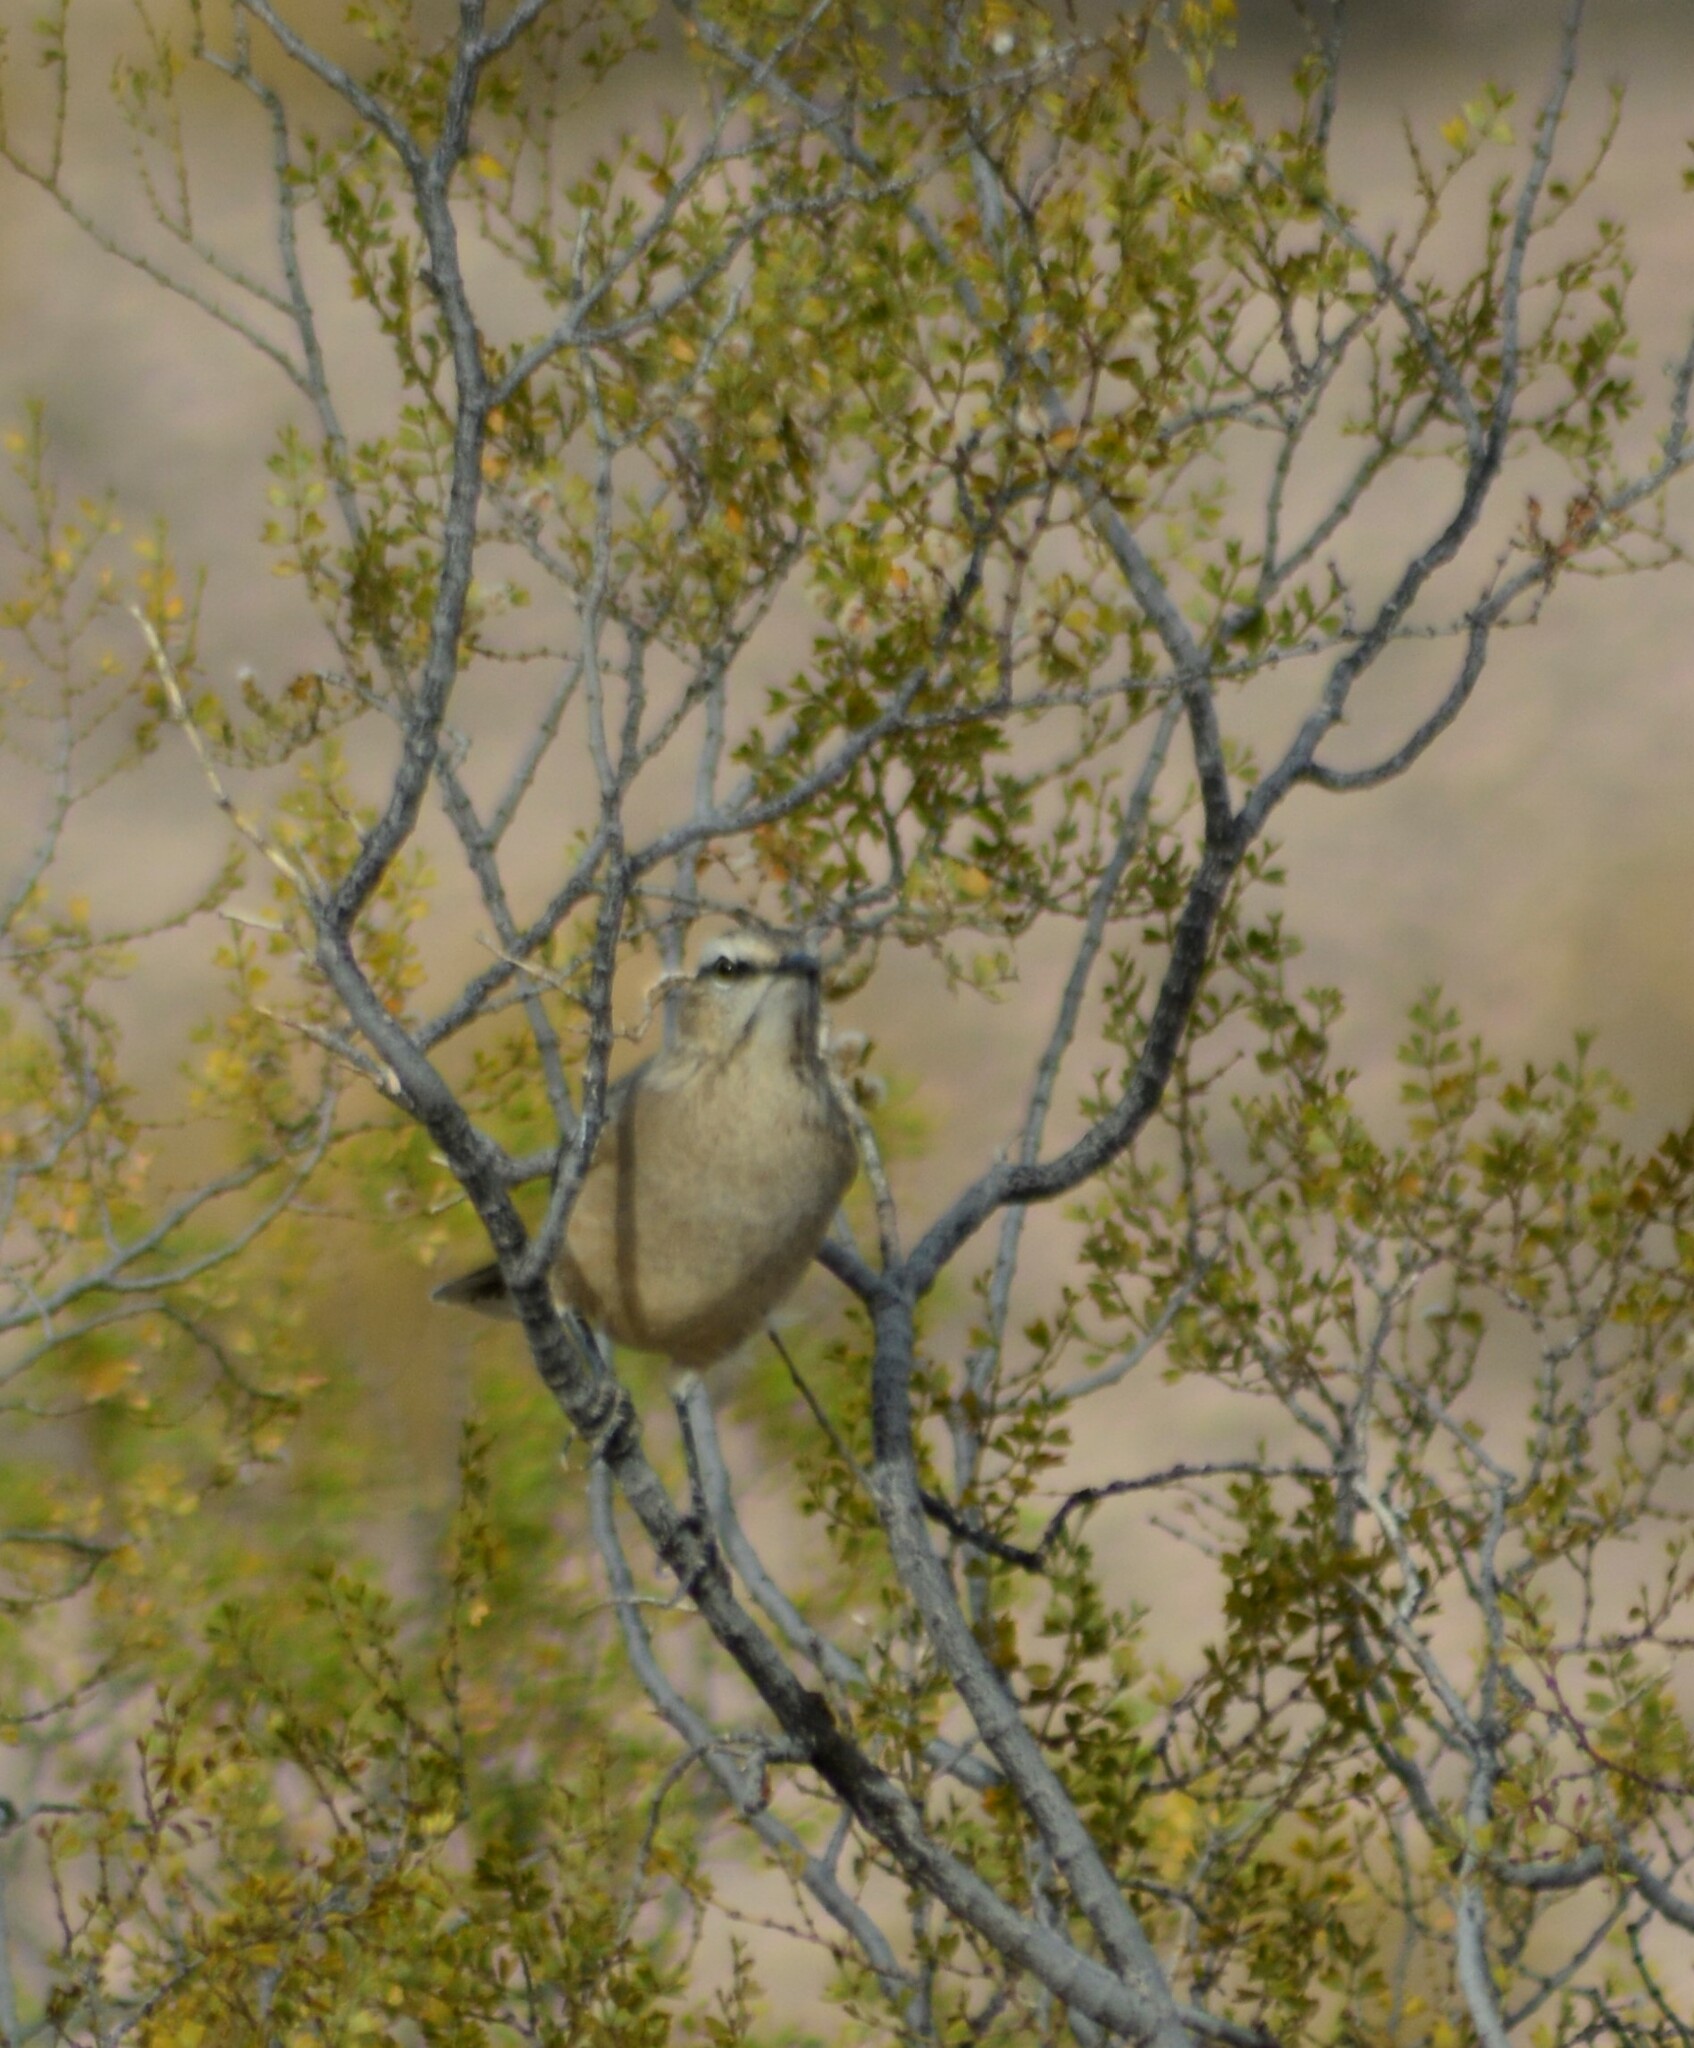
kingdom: Animalia
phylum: Chordata
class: Aves
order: Passeriformes
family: Mimidae
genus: Mimus
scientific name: Mimus patagonicus
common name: Patagonian mockingbird
